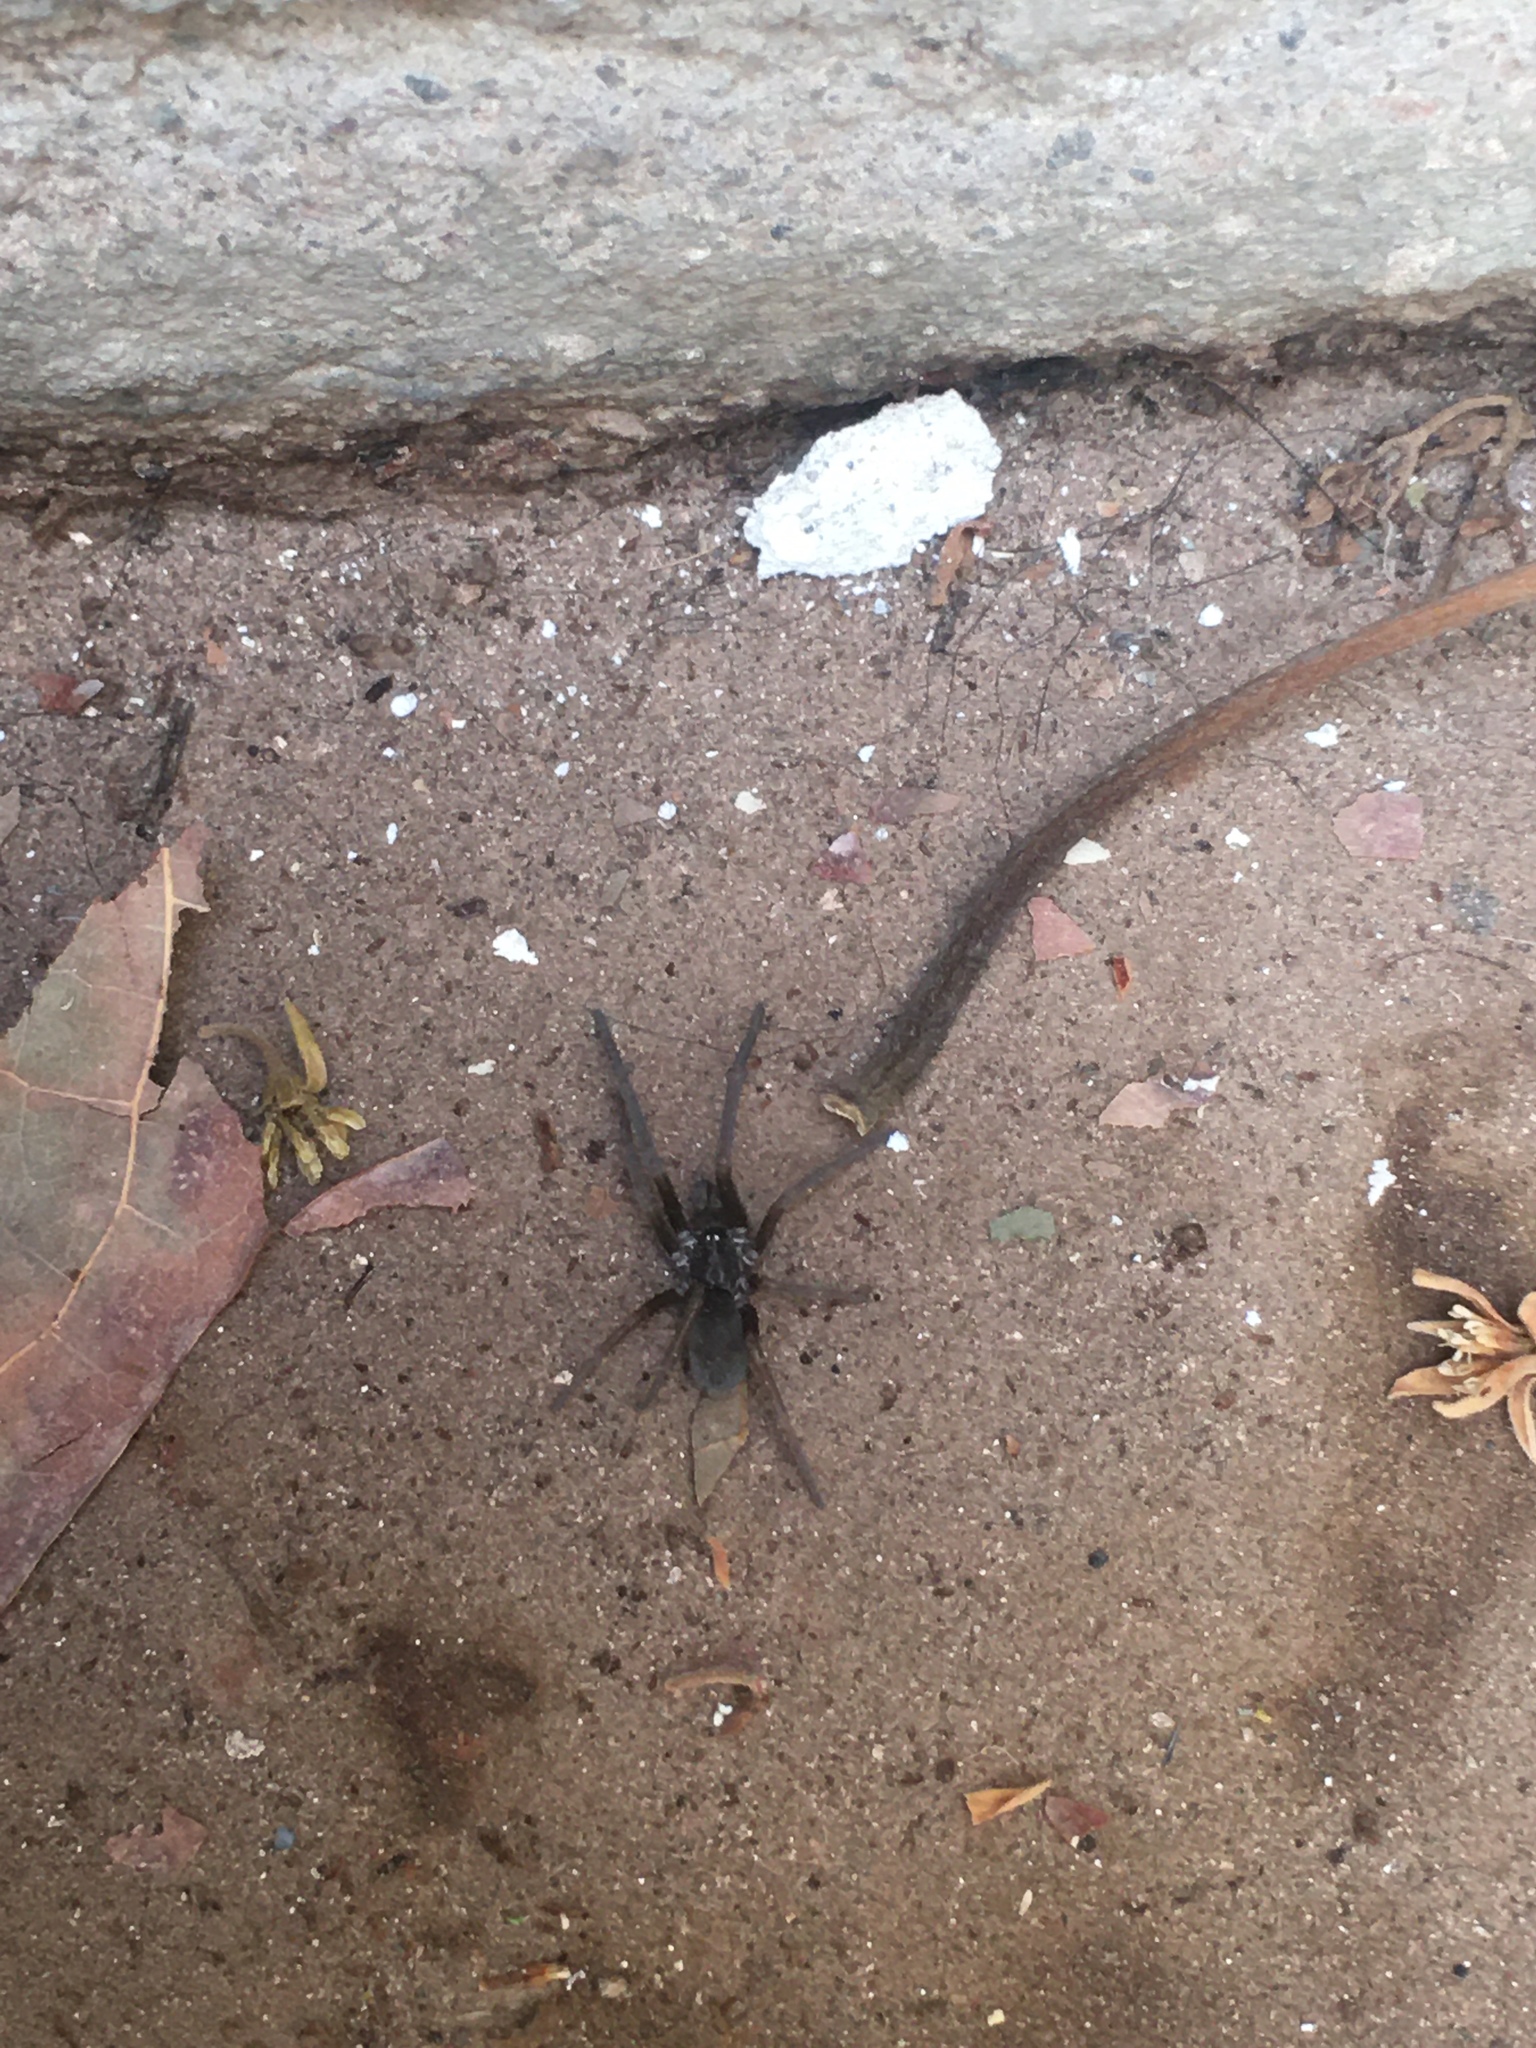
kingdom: Animalia
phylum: Arthropoda
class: Arachnida
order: Araneae
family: Filistatidae
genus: Kukulcania
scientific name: Kukulcania hibernalis
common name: Crevice weaver
